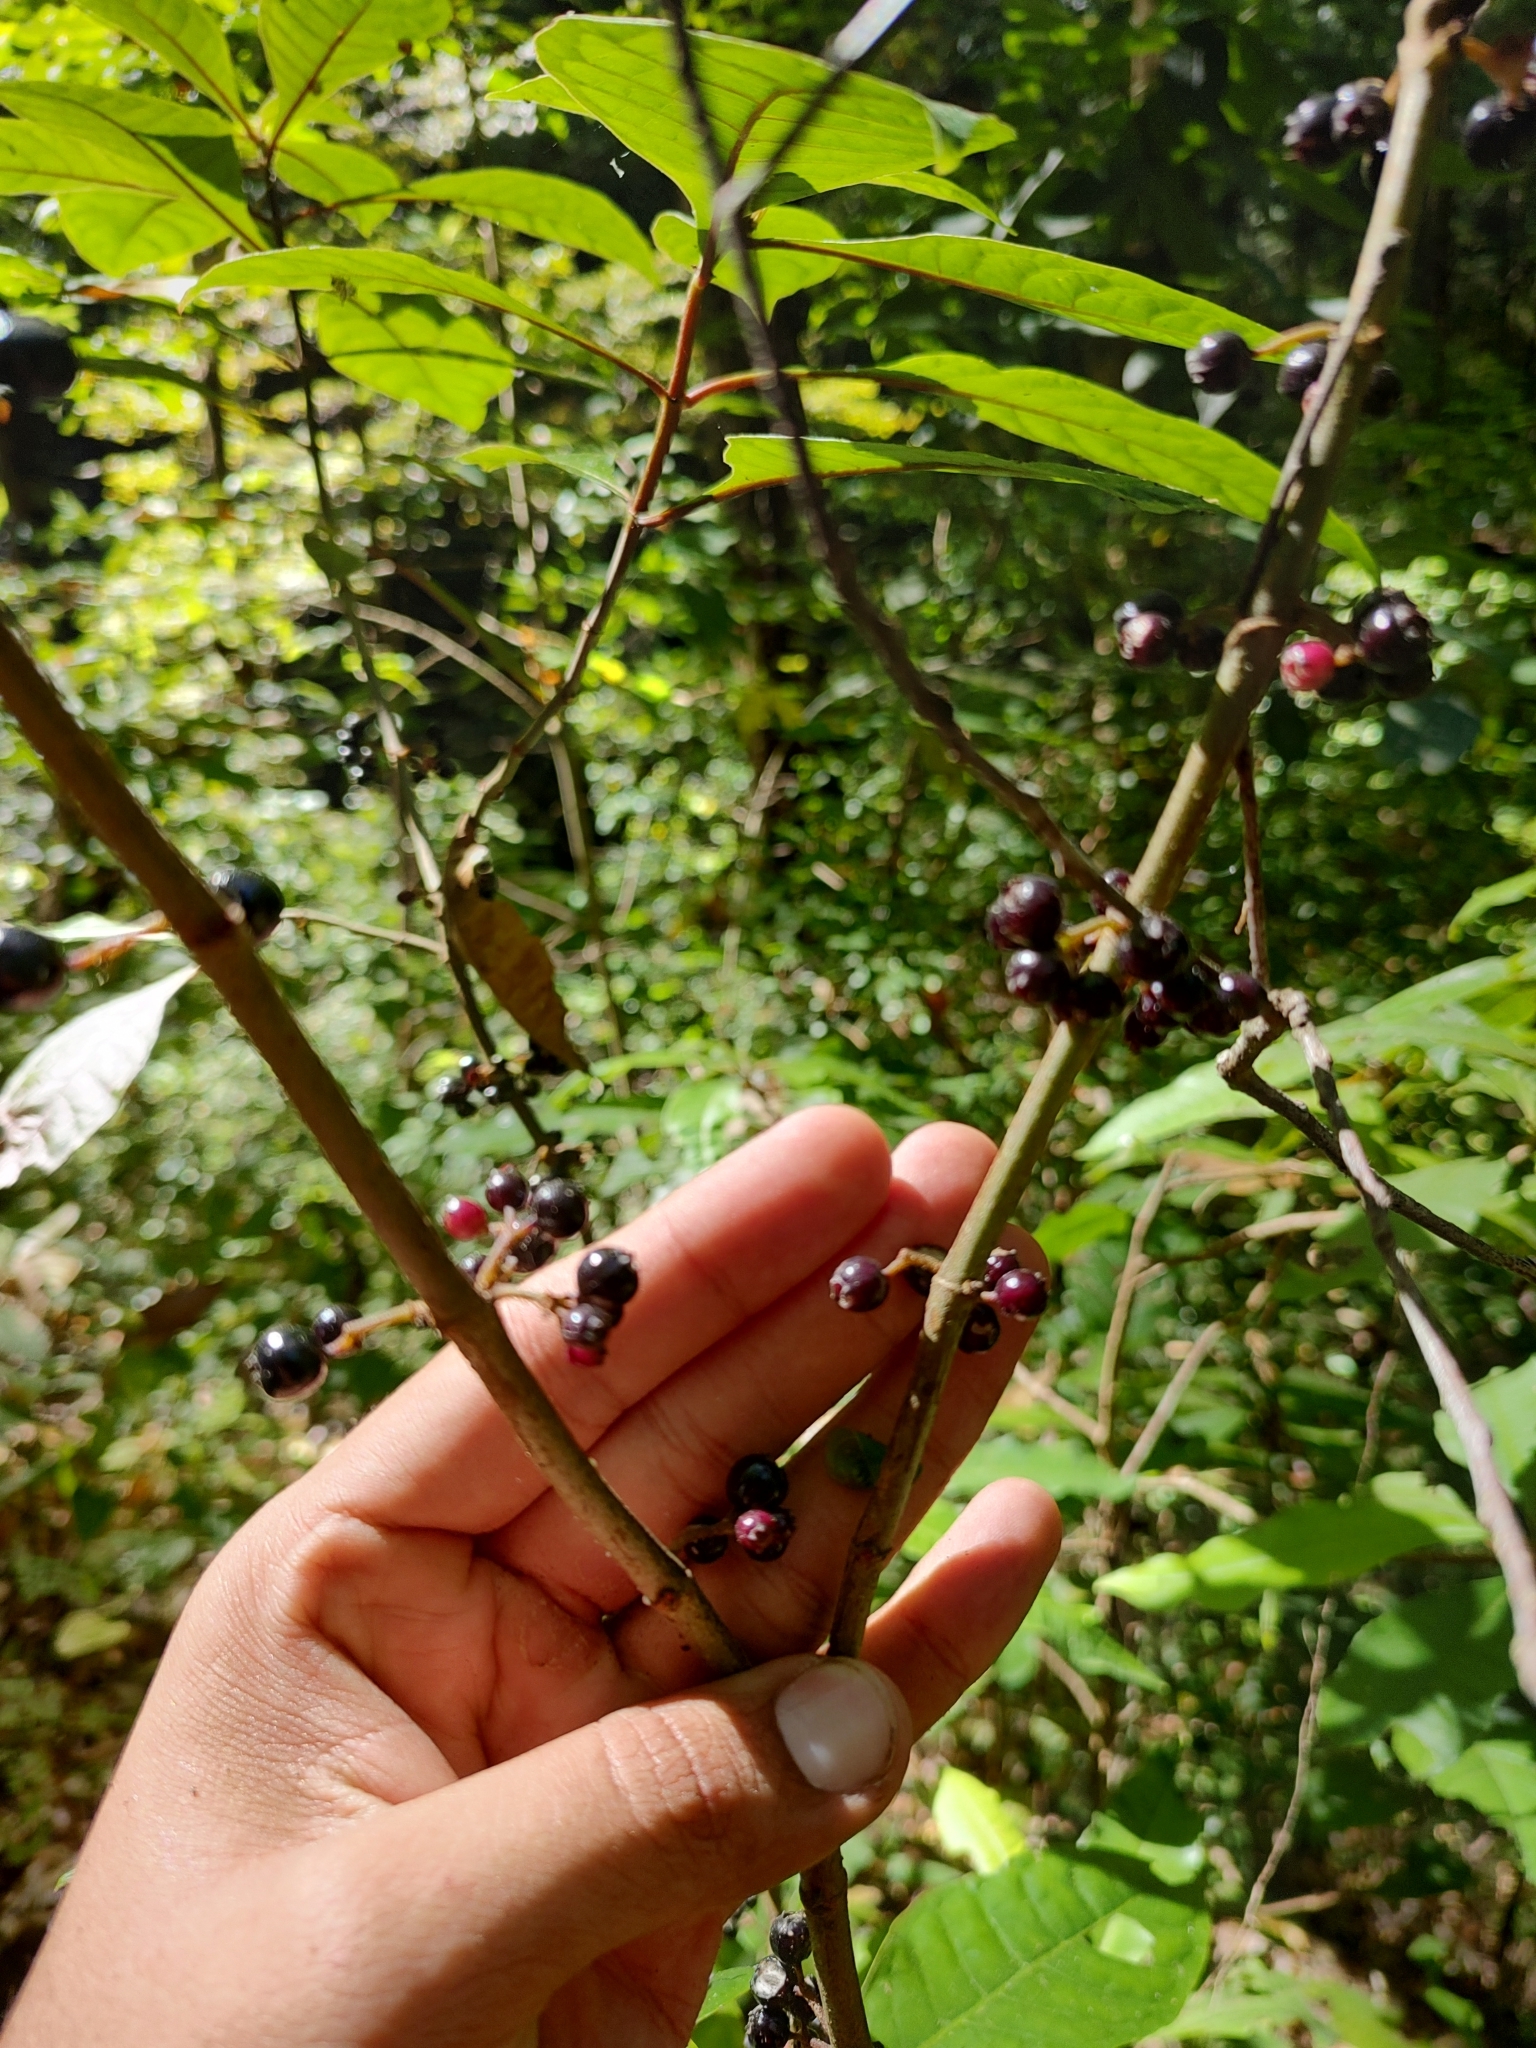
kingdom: Plantae
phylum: Tracheophyta
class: Magnoliopsida
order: Gentianales
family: Rubiaceae
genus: Hoffmannia
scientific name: Hoffmannia cuneatissima
